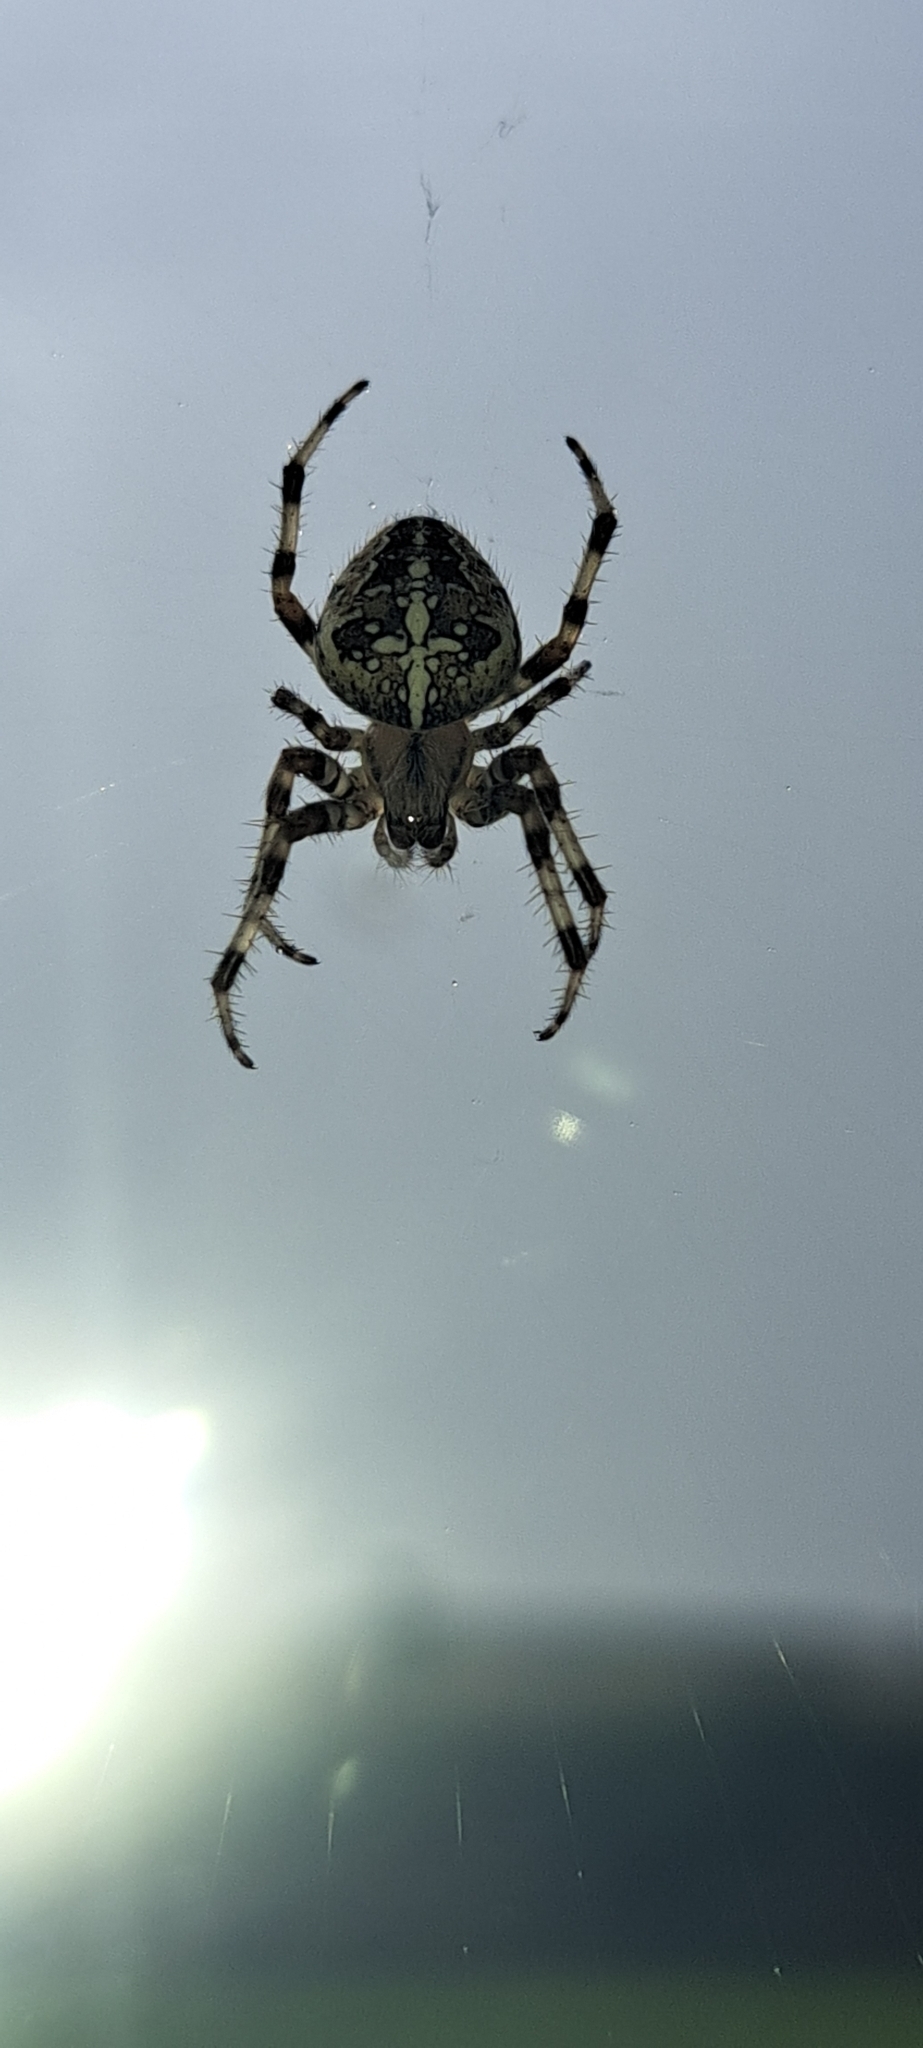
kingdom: Animalia
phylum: Arthropoda
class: Arachnida
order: Araneae
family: Araneidae
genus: Araneus
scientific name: Araneus diadematus
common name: Cross orbweaver
